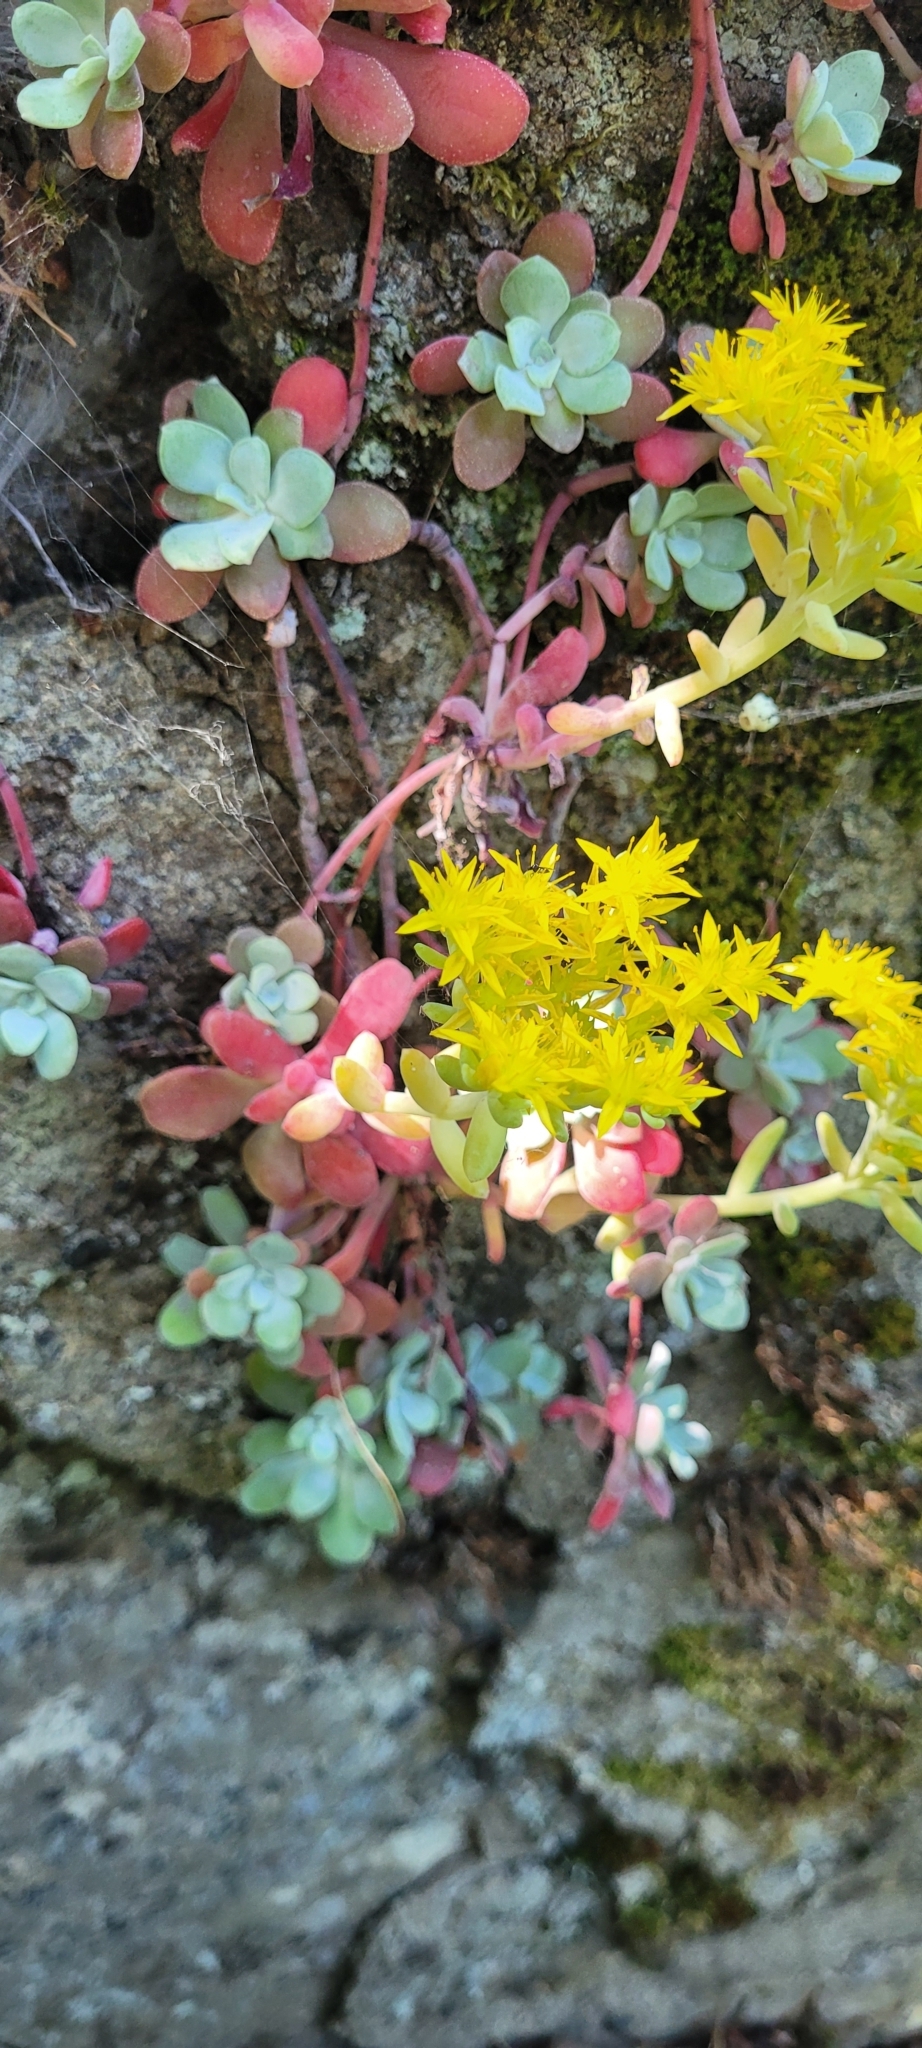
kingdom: Plantae
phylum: Tracheophyta
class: Magnoliopsida
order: Saxifragales
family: Crassulaceae
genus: Sedum
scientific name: Sedum spathulifolium
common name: Colorado stonecrop
